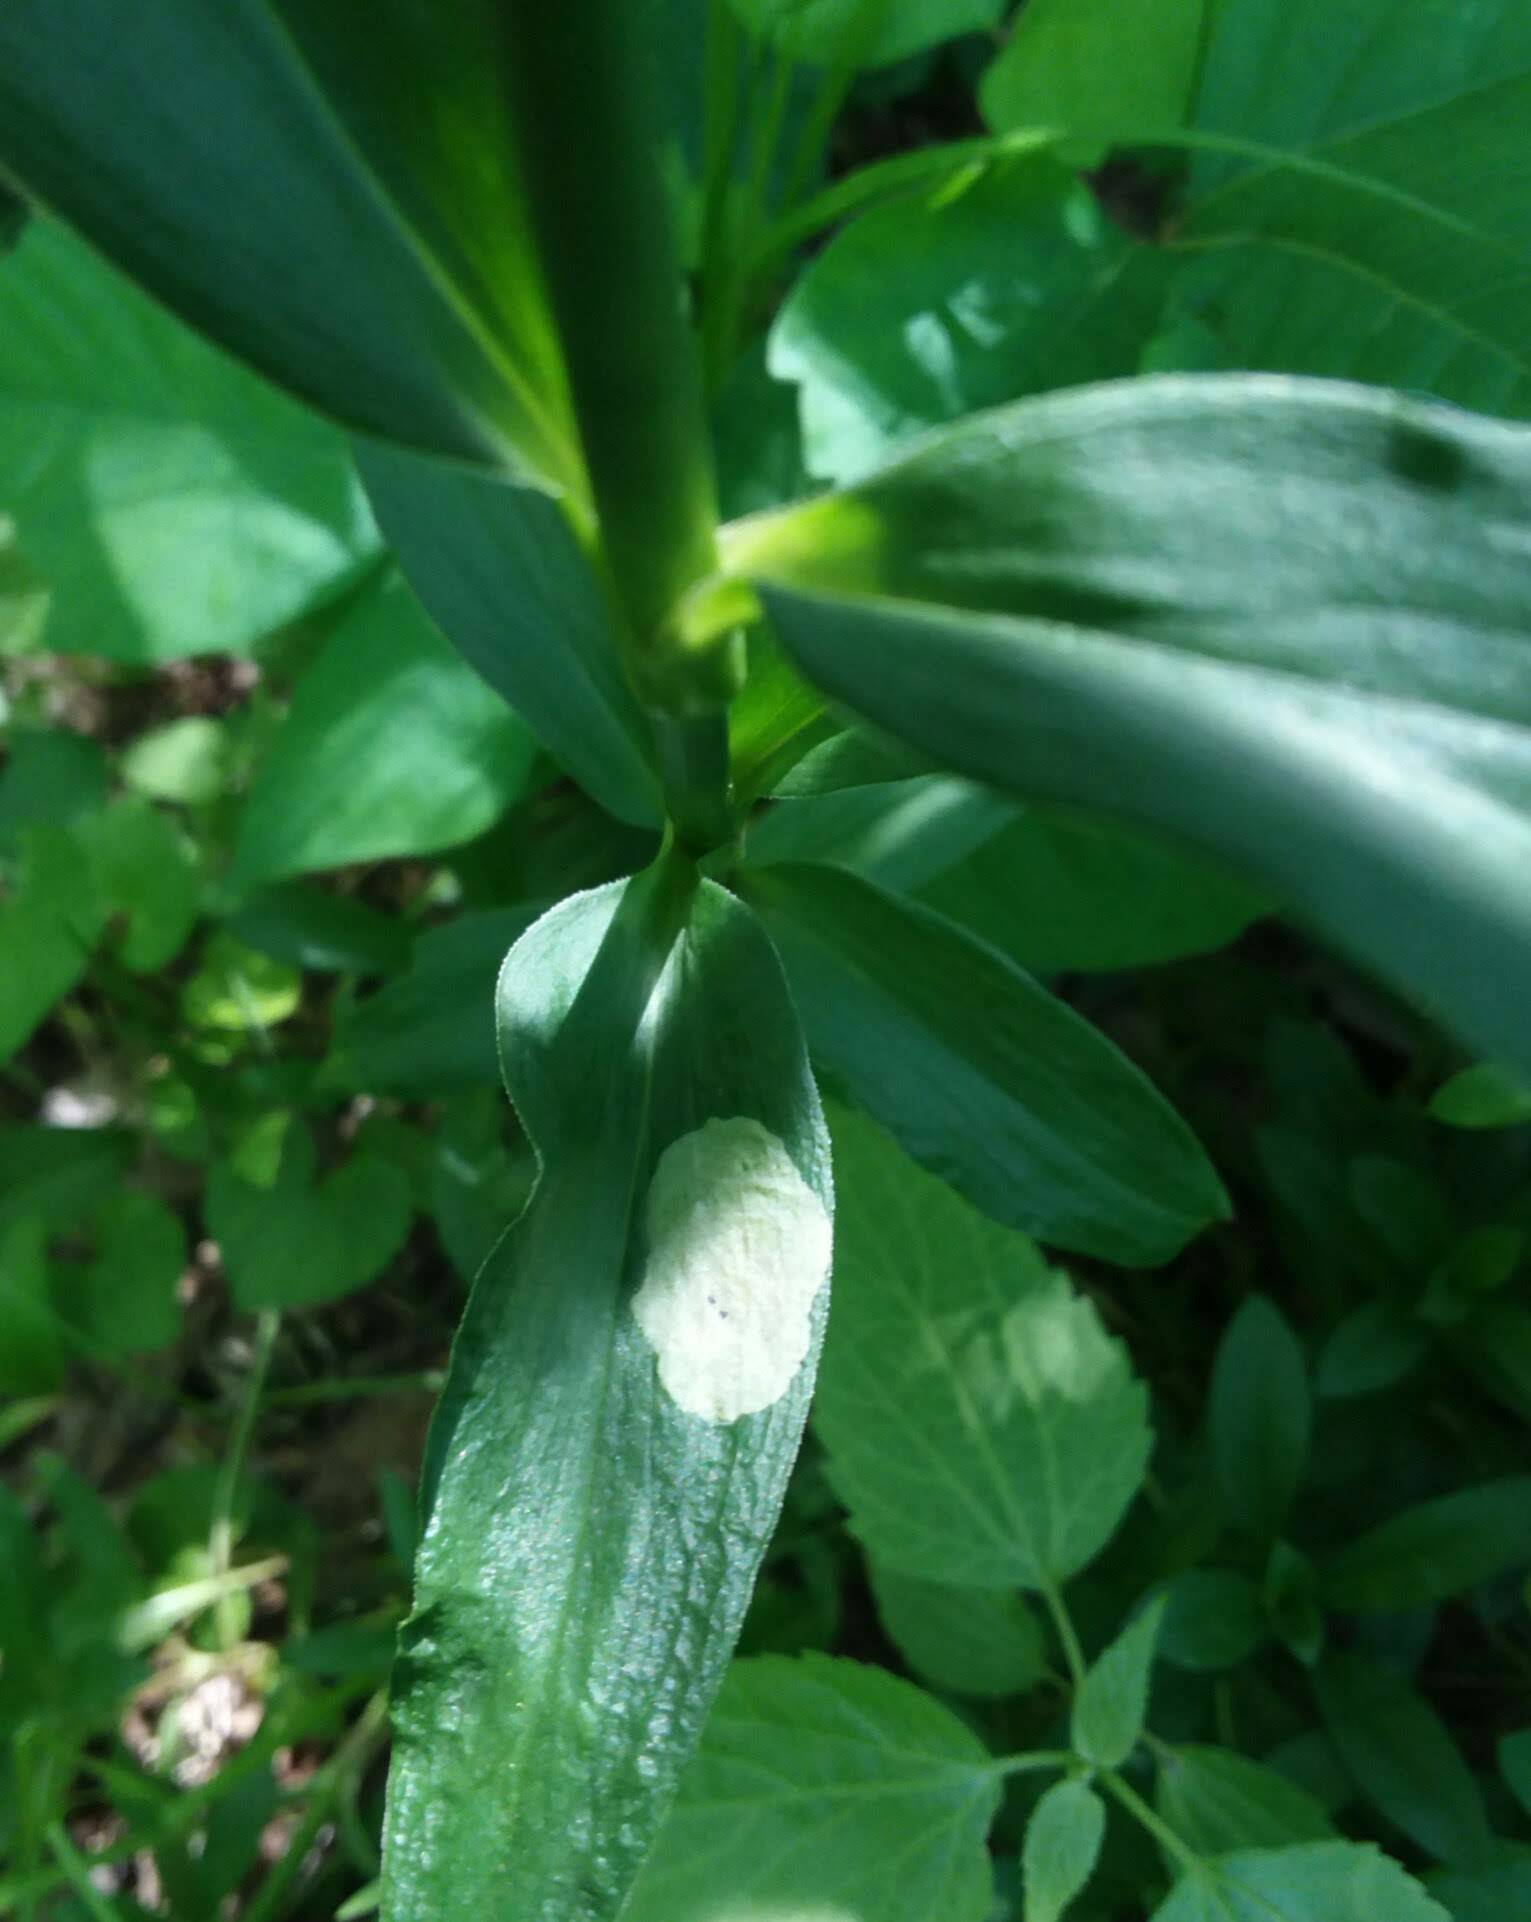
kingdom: Animalia
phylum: Arthropoda
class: Insecta
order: Diptera
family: Agromyzidae
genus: Amauromyza
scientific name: Amauromyza flavifrons
